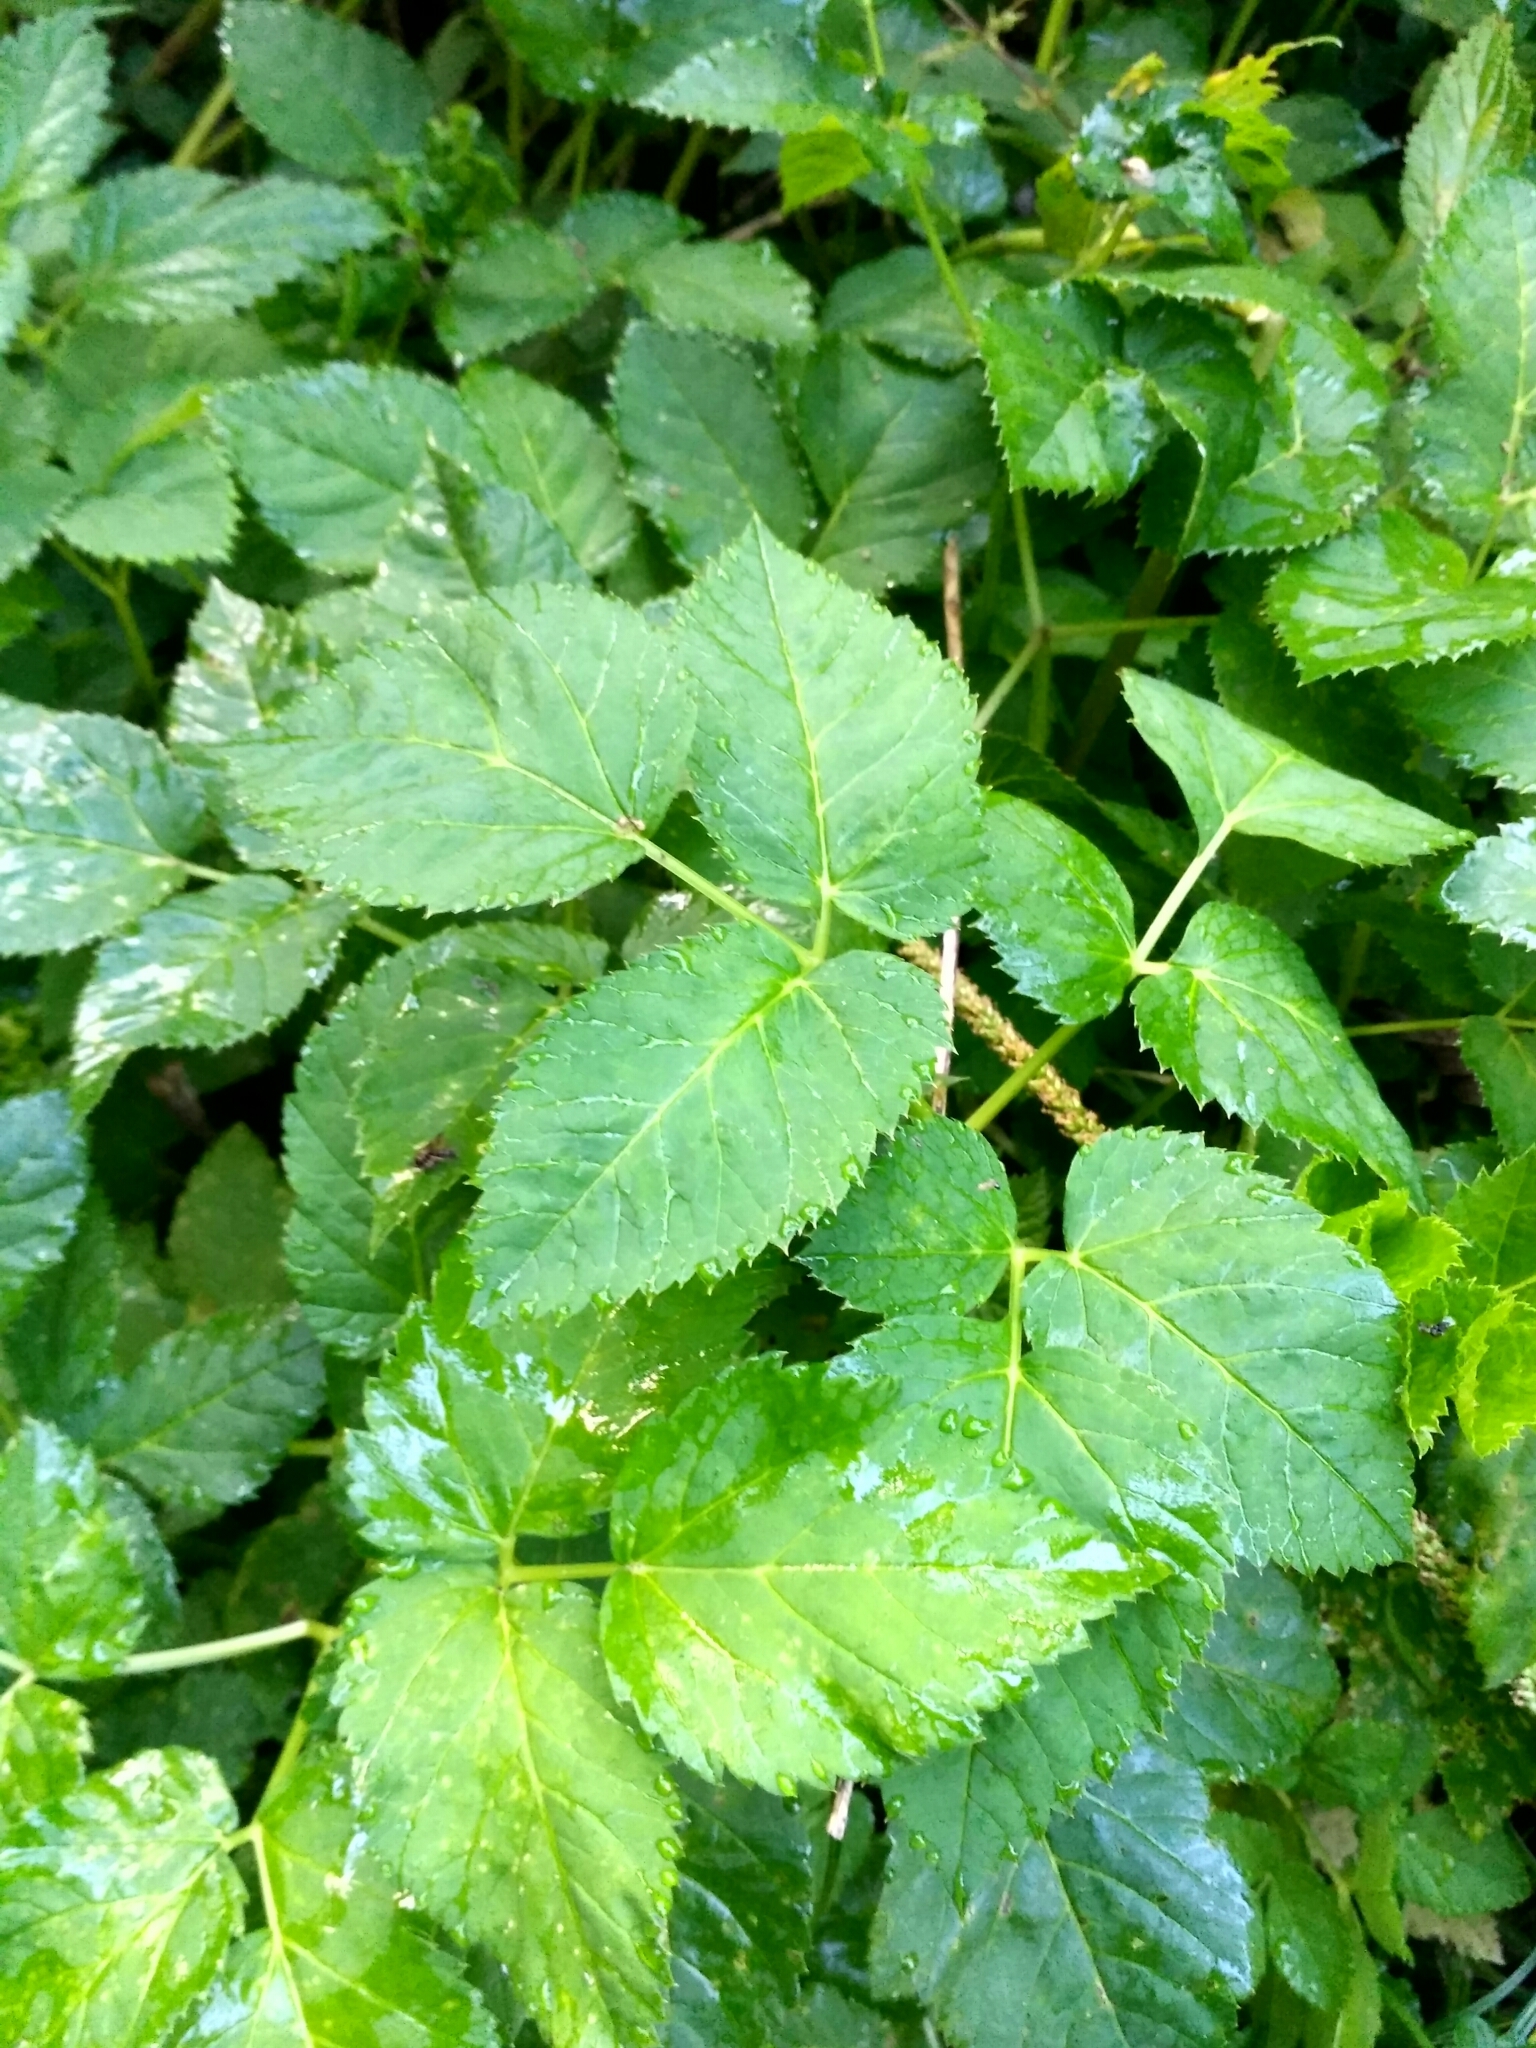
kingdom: Plantae
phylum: Tracheophyta
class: Magnoliopsida
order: Apiales
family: Apiaceae
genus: Aegopodium
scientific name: Aegopodium podagraria
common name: Ground-elder
